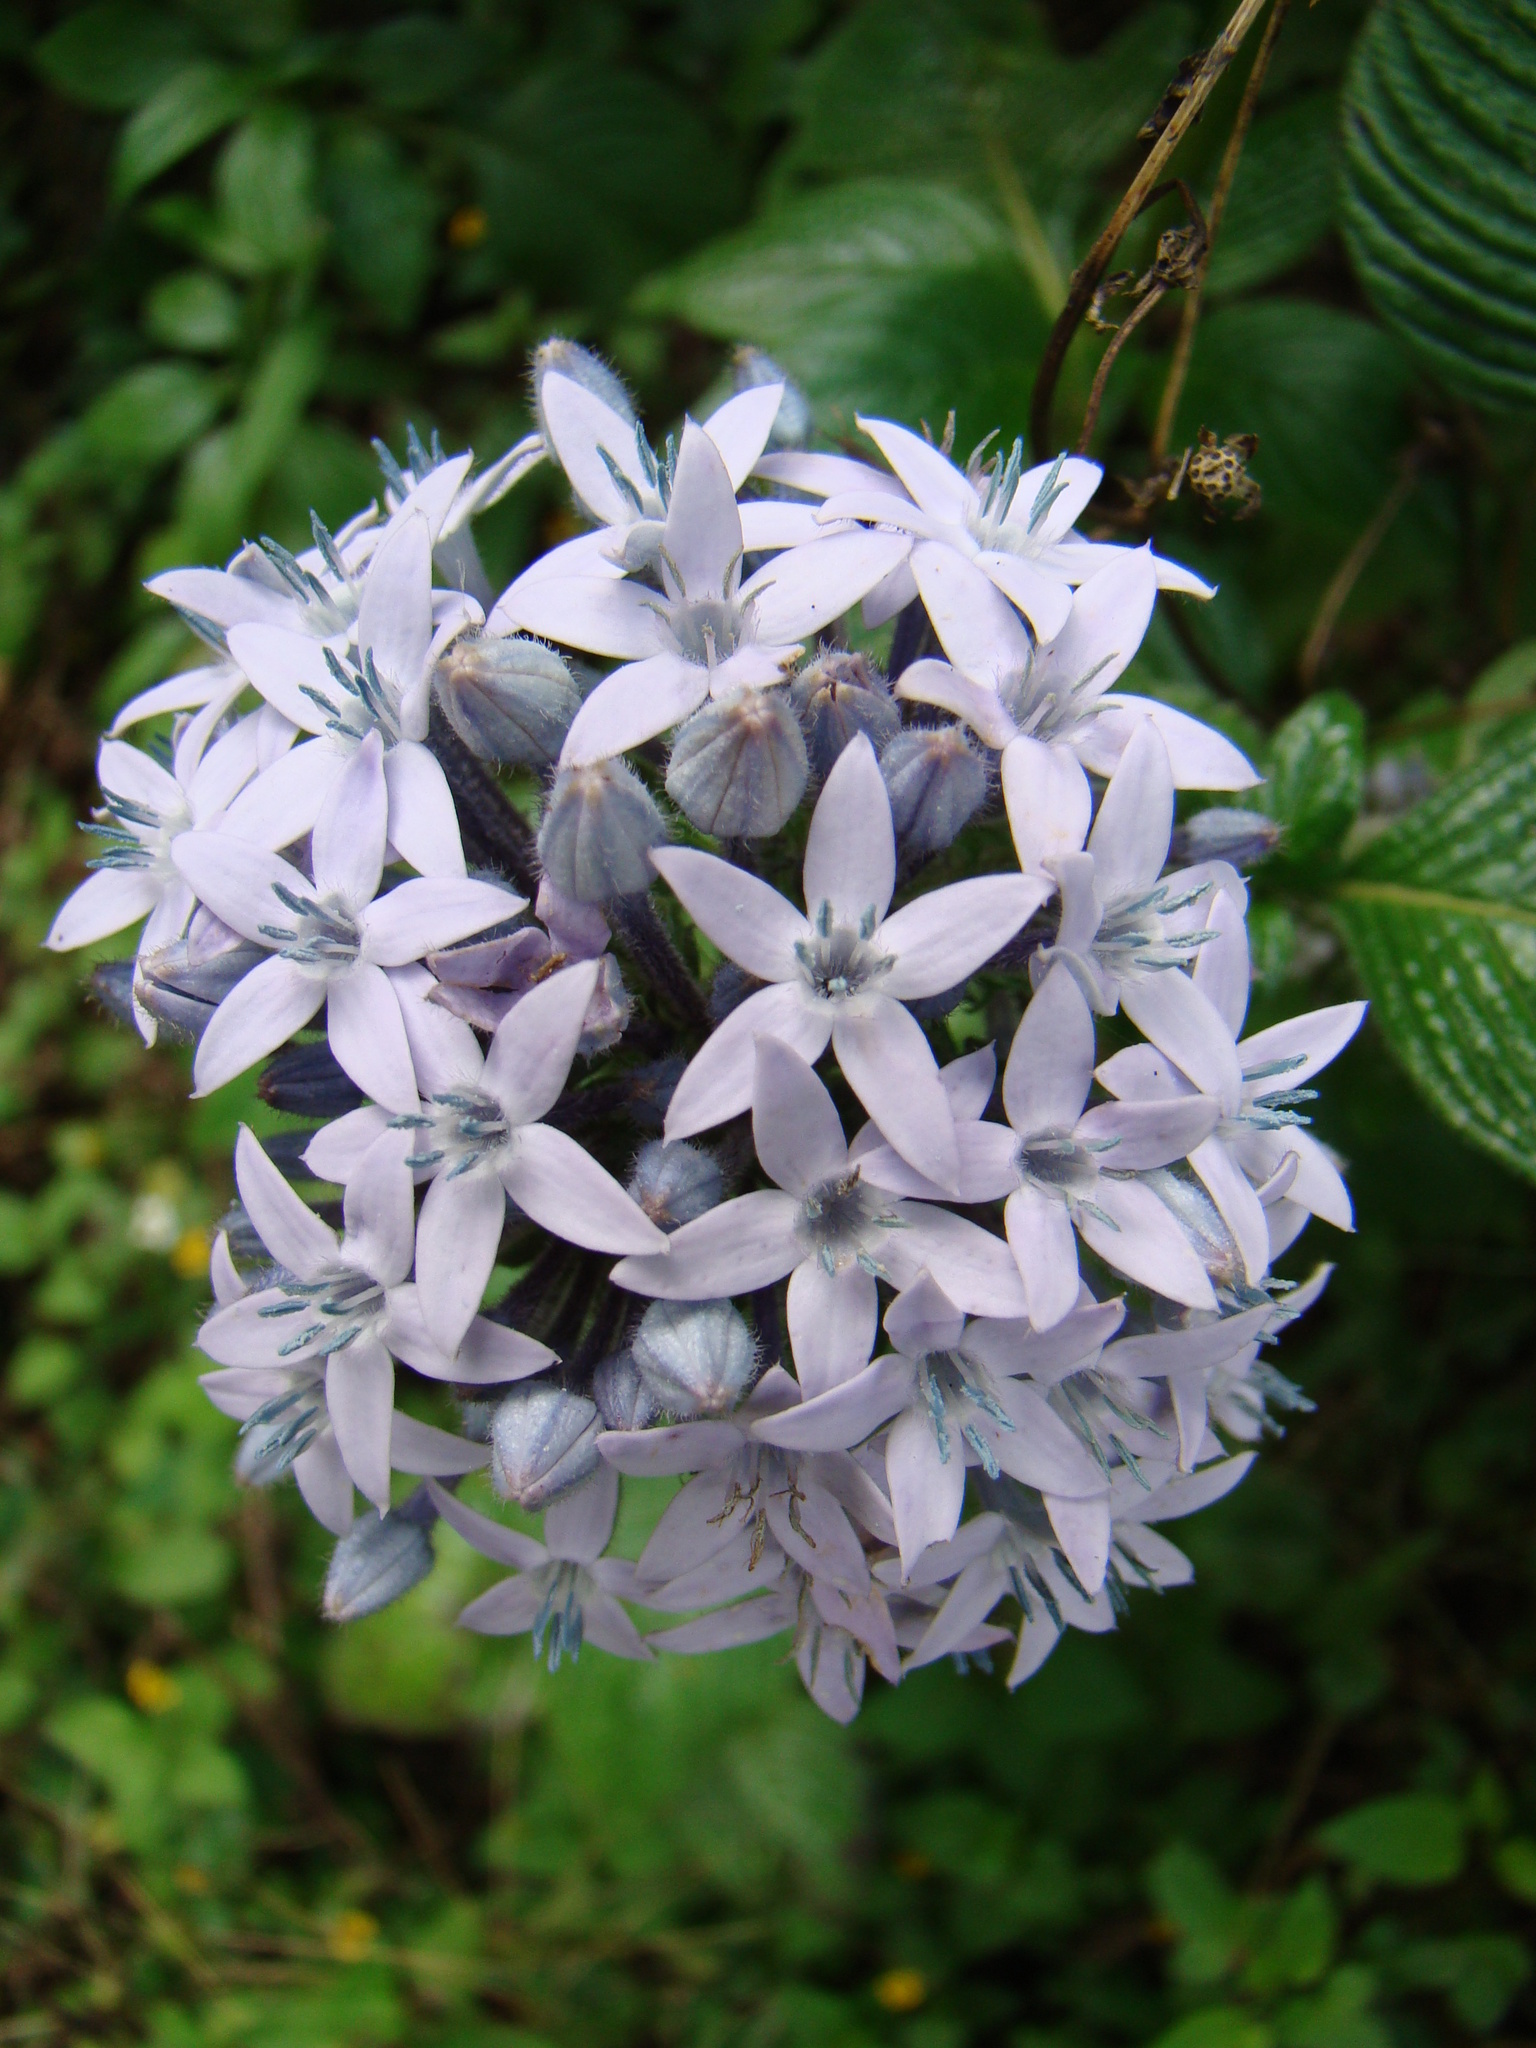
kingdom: Plantae
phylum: Tracheophyta
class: Magnoliopsida
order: Gentianales
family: Rubiaceae
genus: Pentas
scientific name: Pentas lanceolata
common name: Egyptian starcluster
